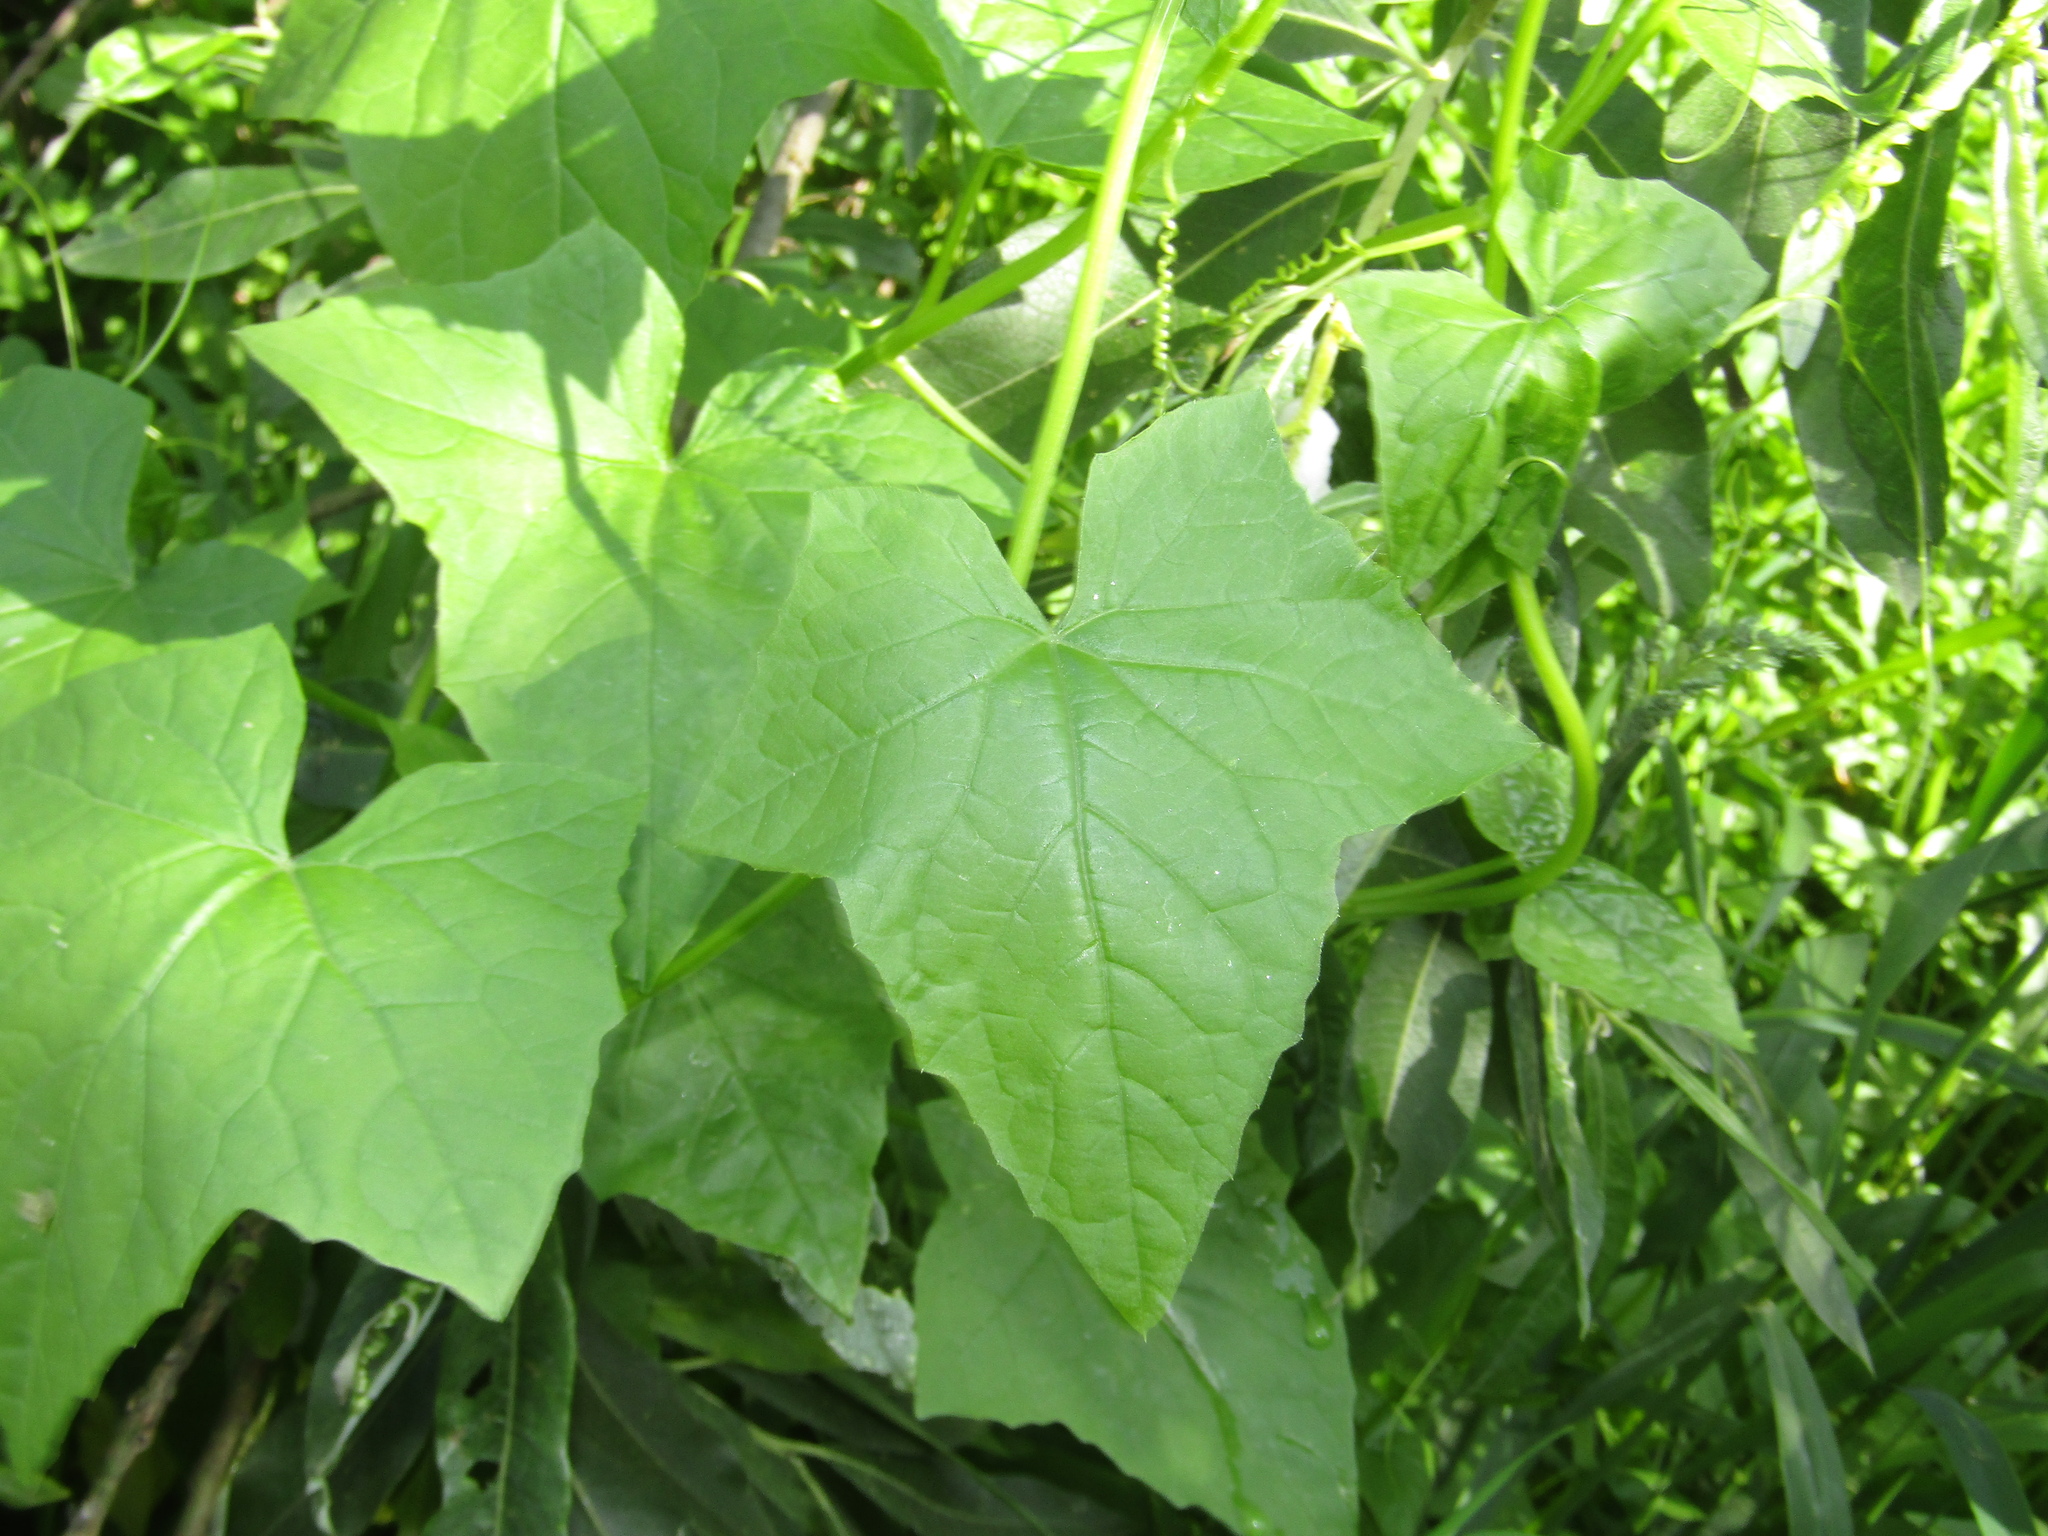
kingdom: Plantae
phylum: Tracheophyta
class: Magnoliopsida
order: Cucurbitales
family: Cucurbitaceae
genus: Echinocystis
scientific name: Echinocystis lobata
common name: Wild cucumber
